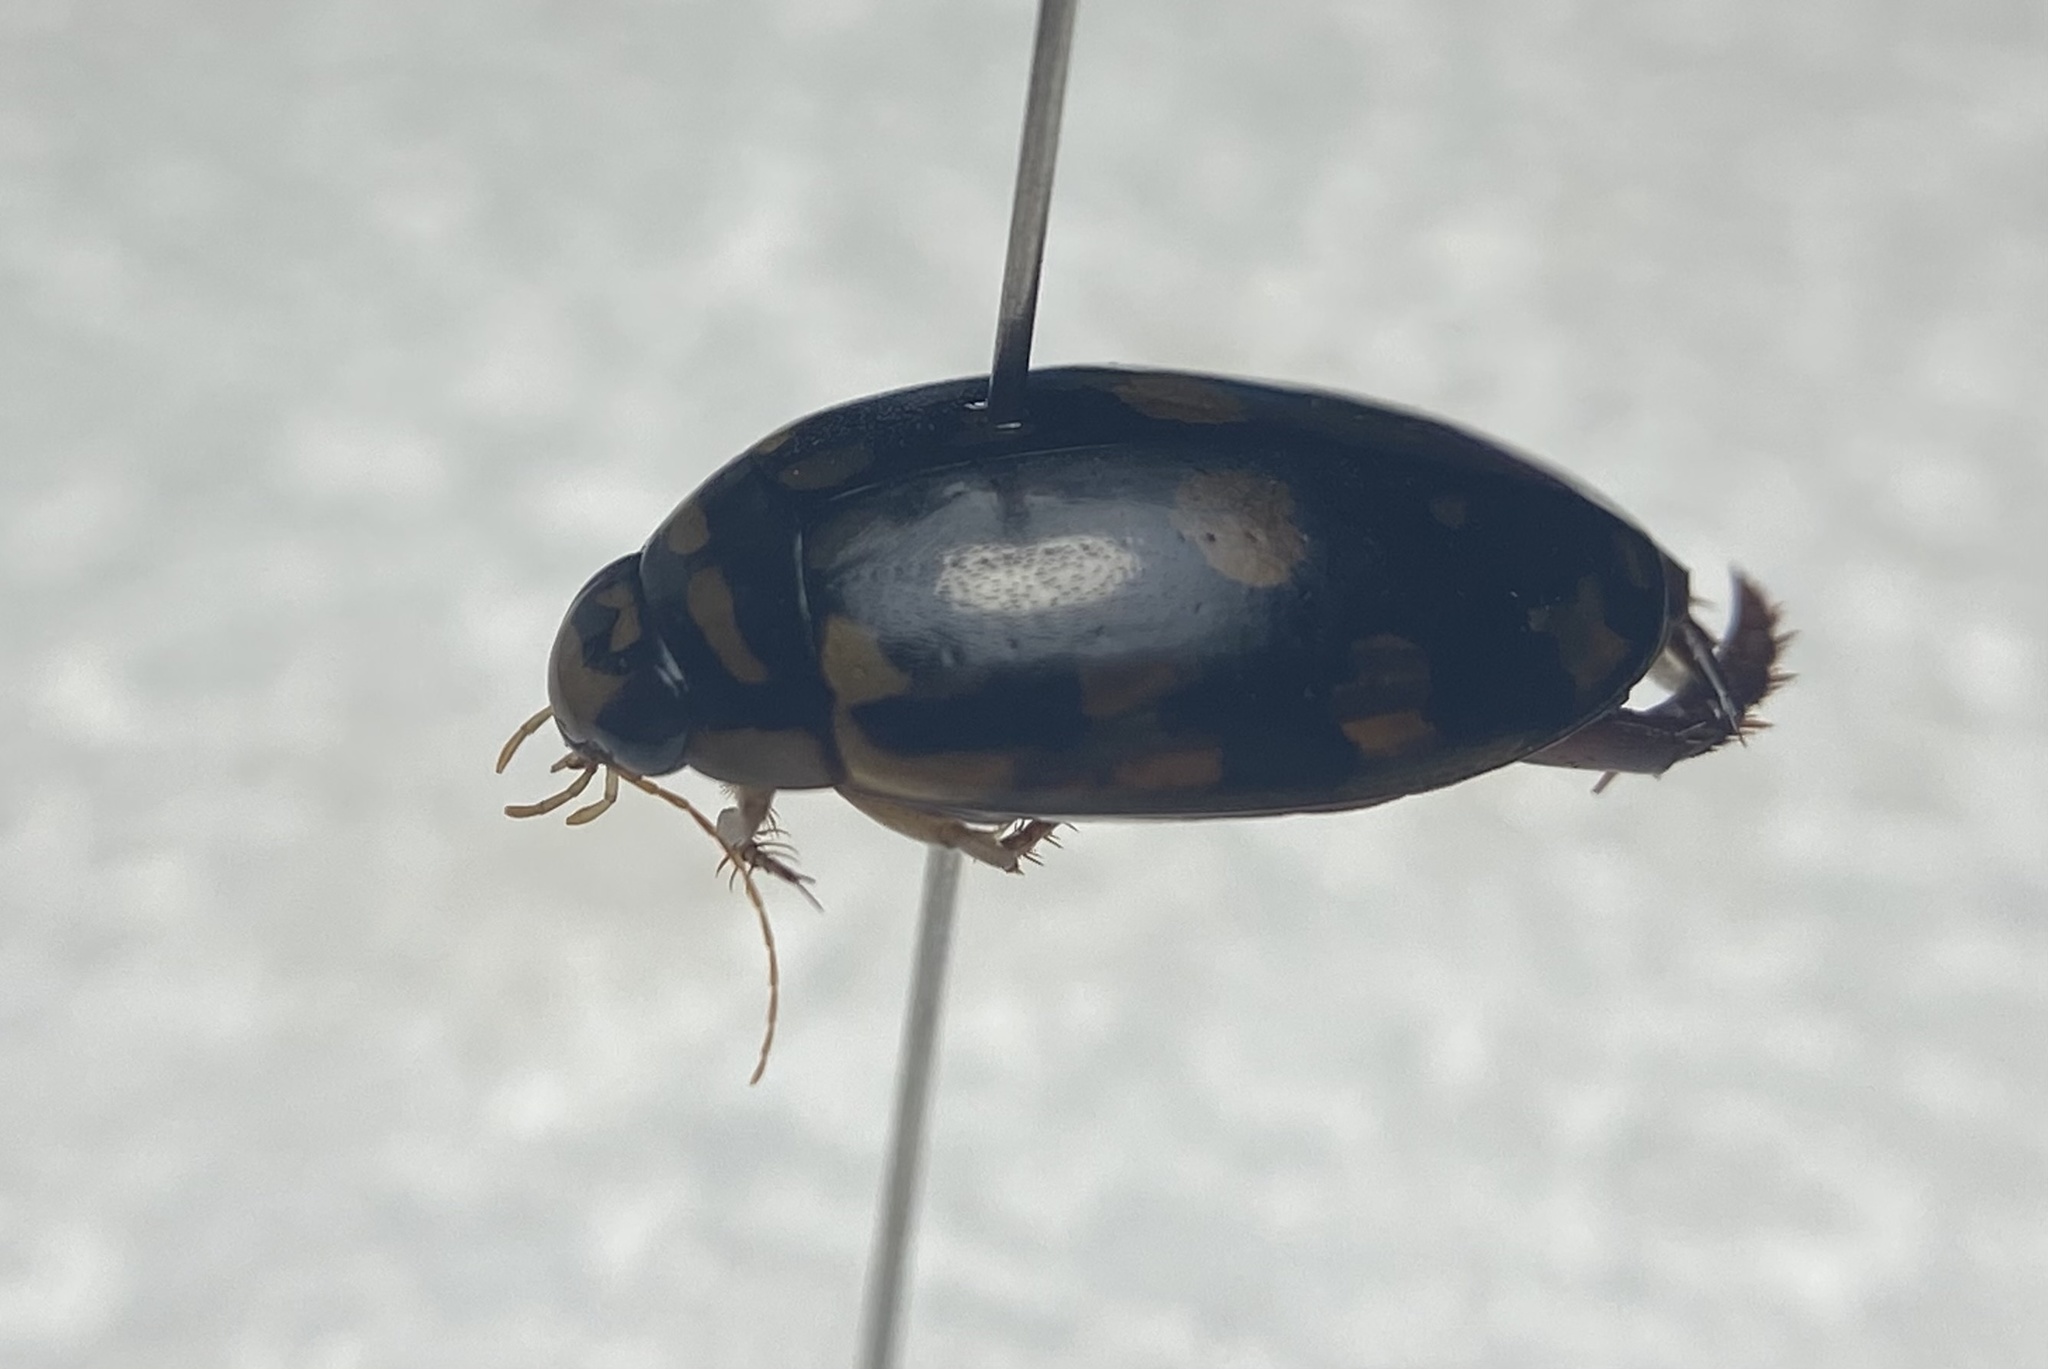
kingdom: Animalia
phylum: Arthropoda
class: Insecta
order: Coleoptera
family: Dytiscidae
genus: Thermonectus
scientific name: Thermonectus marmoratus
